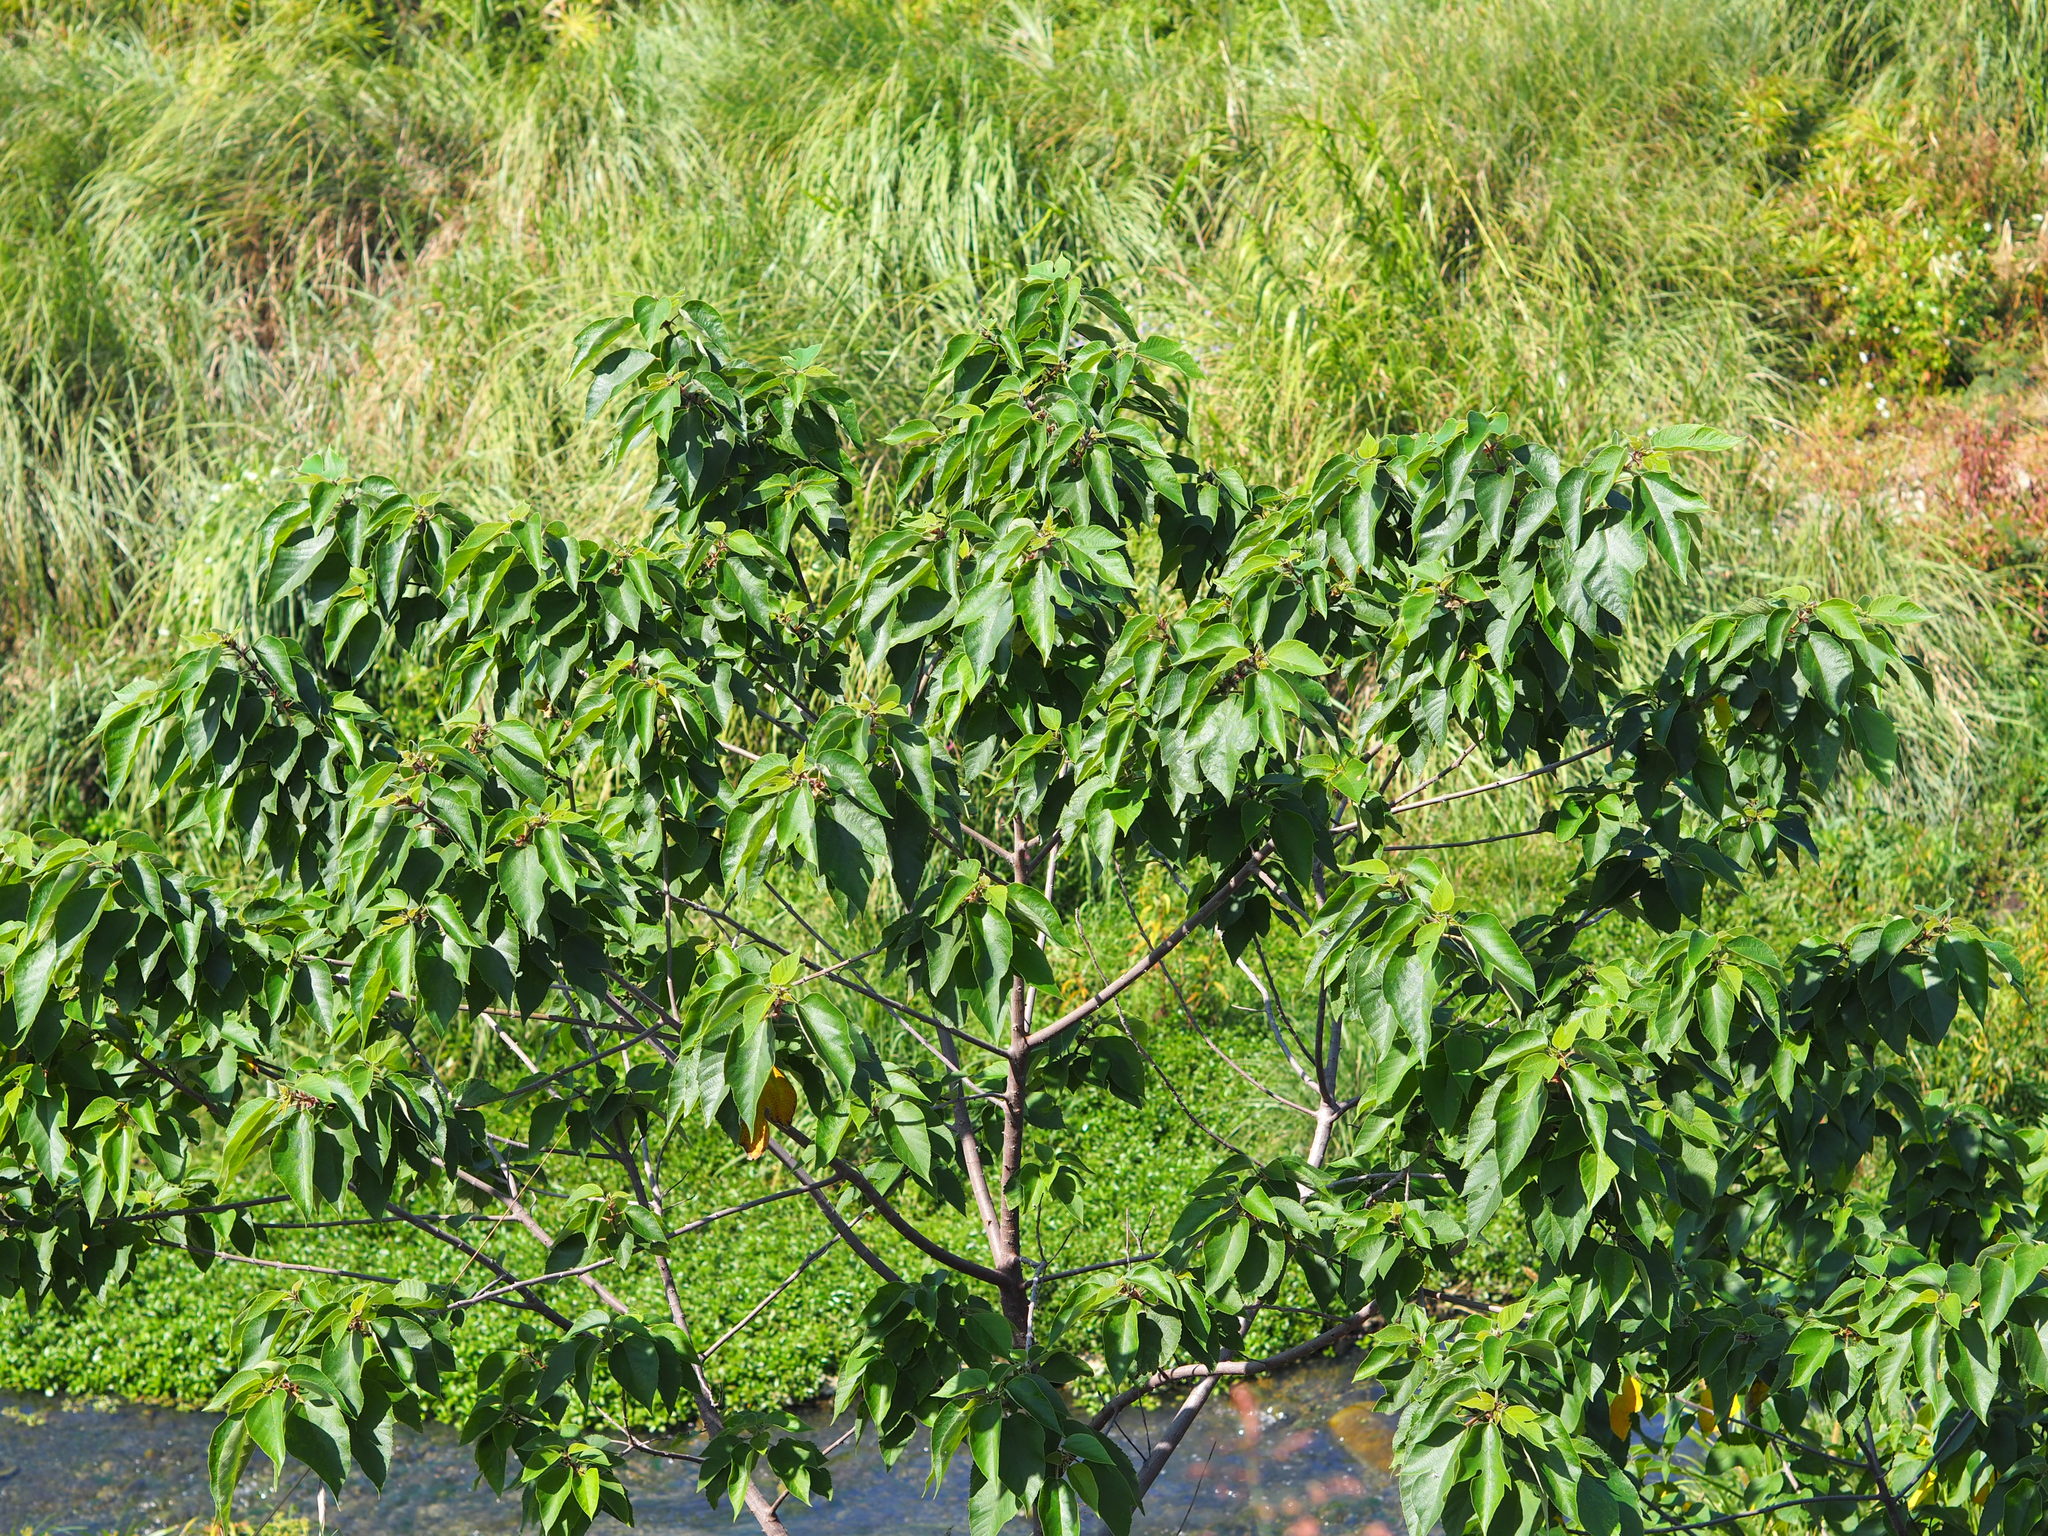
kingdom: Plantae
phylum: Tracheophyta
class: Magnoliopsida
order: Rosales
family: Cannabaceae
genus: Trema
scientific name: Trema orientale
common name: Indian charcoal tree
